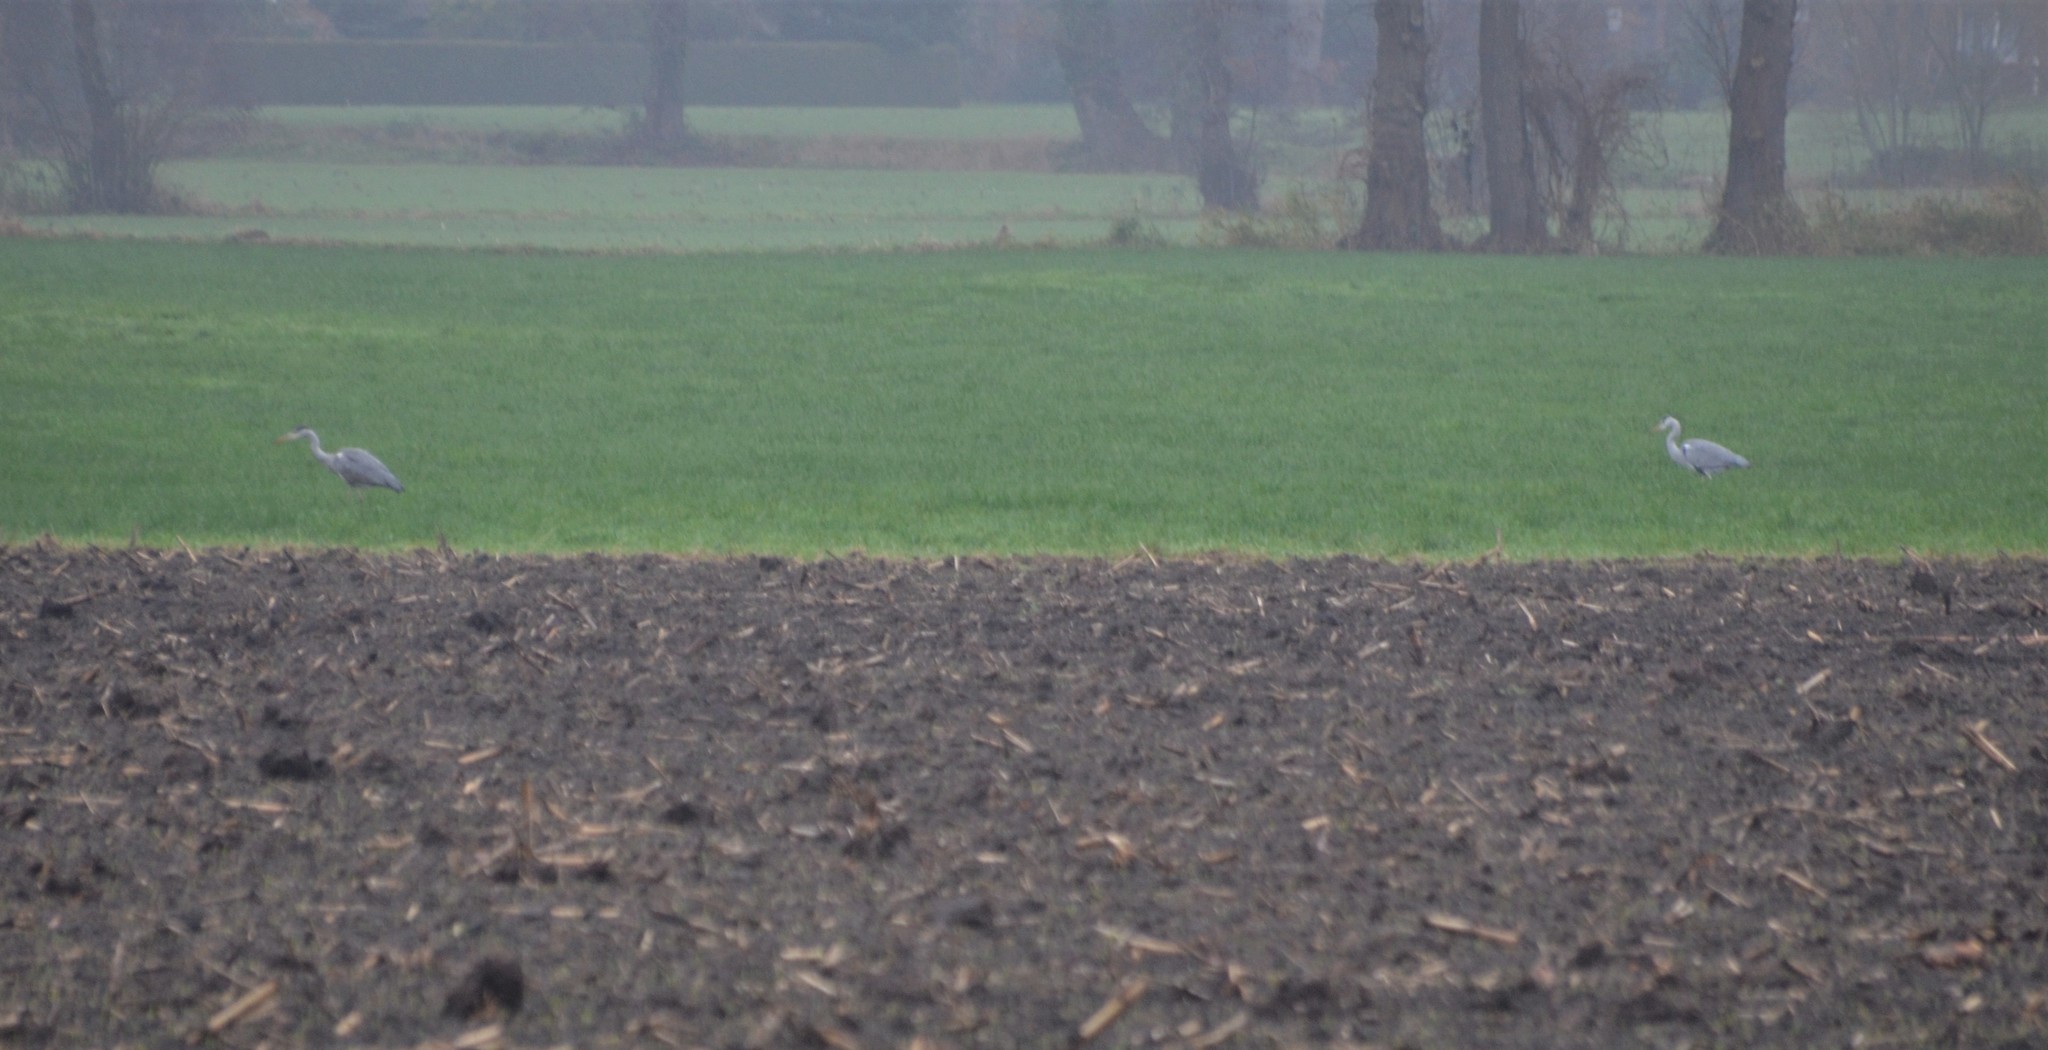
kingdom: Animalia
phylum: Chordata
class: Aves
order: Pelecaniformes
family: Ardeidae
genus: Ardea
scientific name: Ardea cinerea
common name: Grey heron
